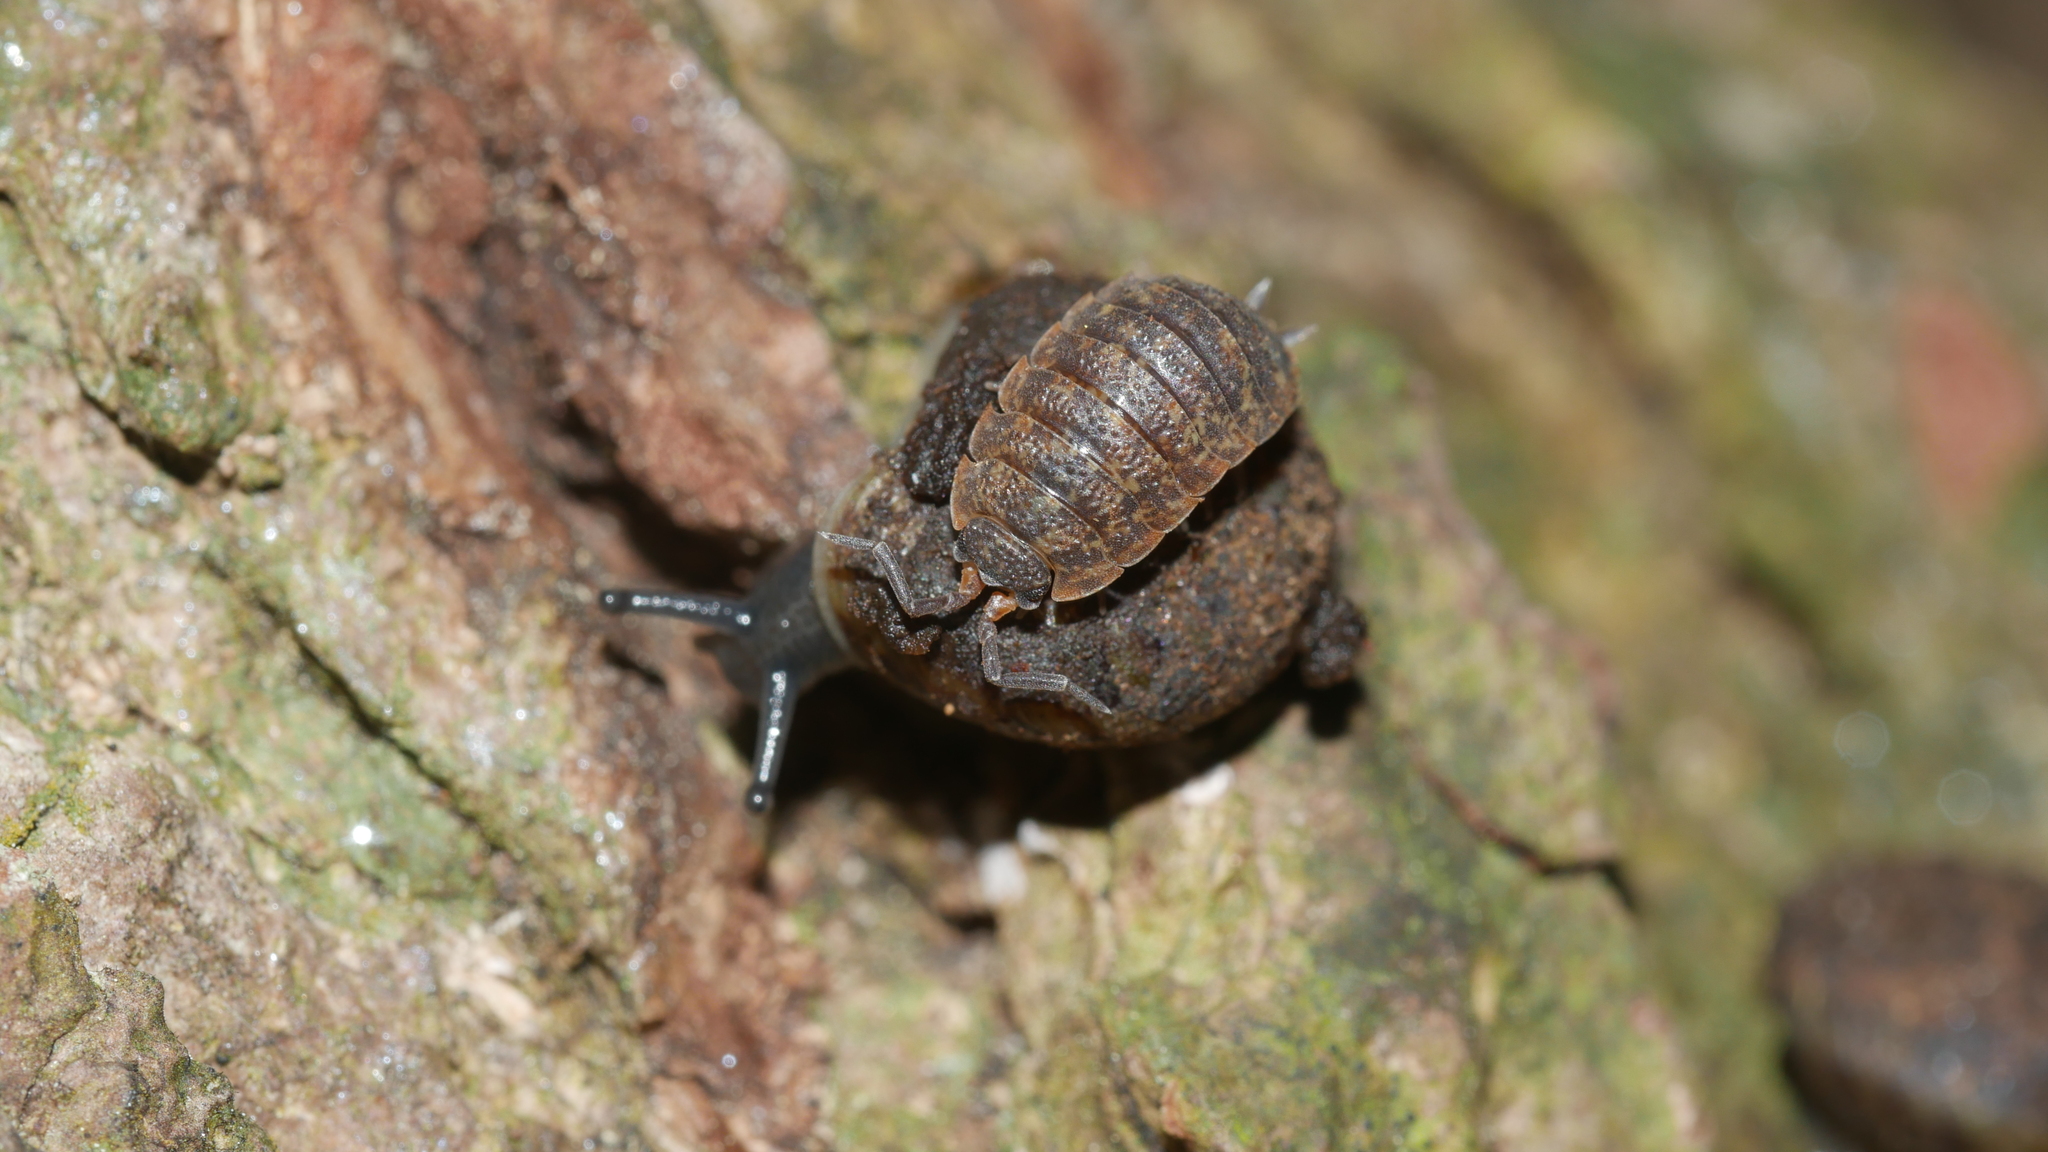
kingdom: Animalia
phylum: Arthropoda
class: Malacostraca
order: Isopoda
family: Porcellionidae
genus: Porcellio
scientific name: Porcellio scaber
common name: Common rough woodlouse
